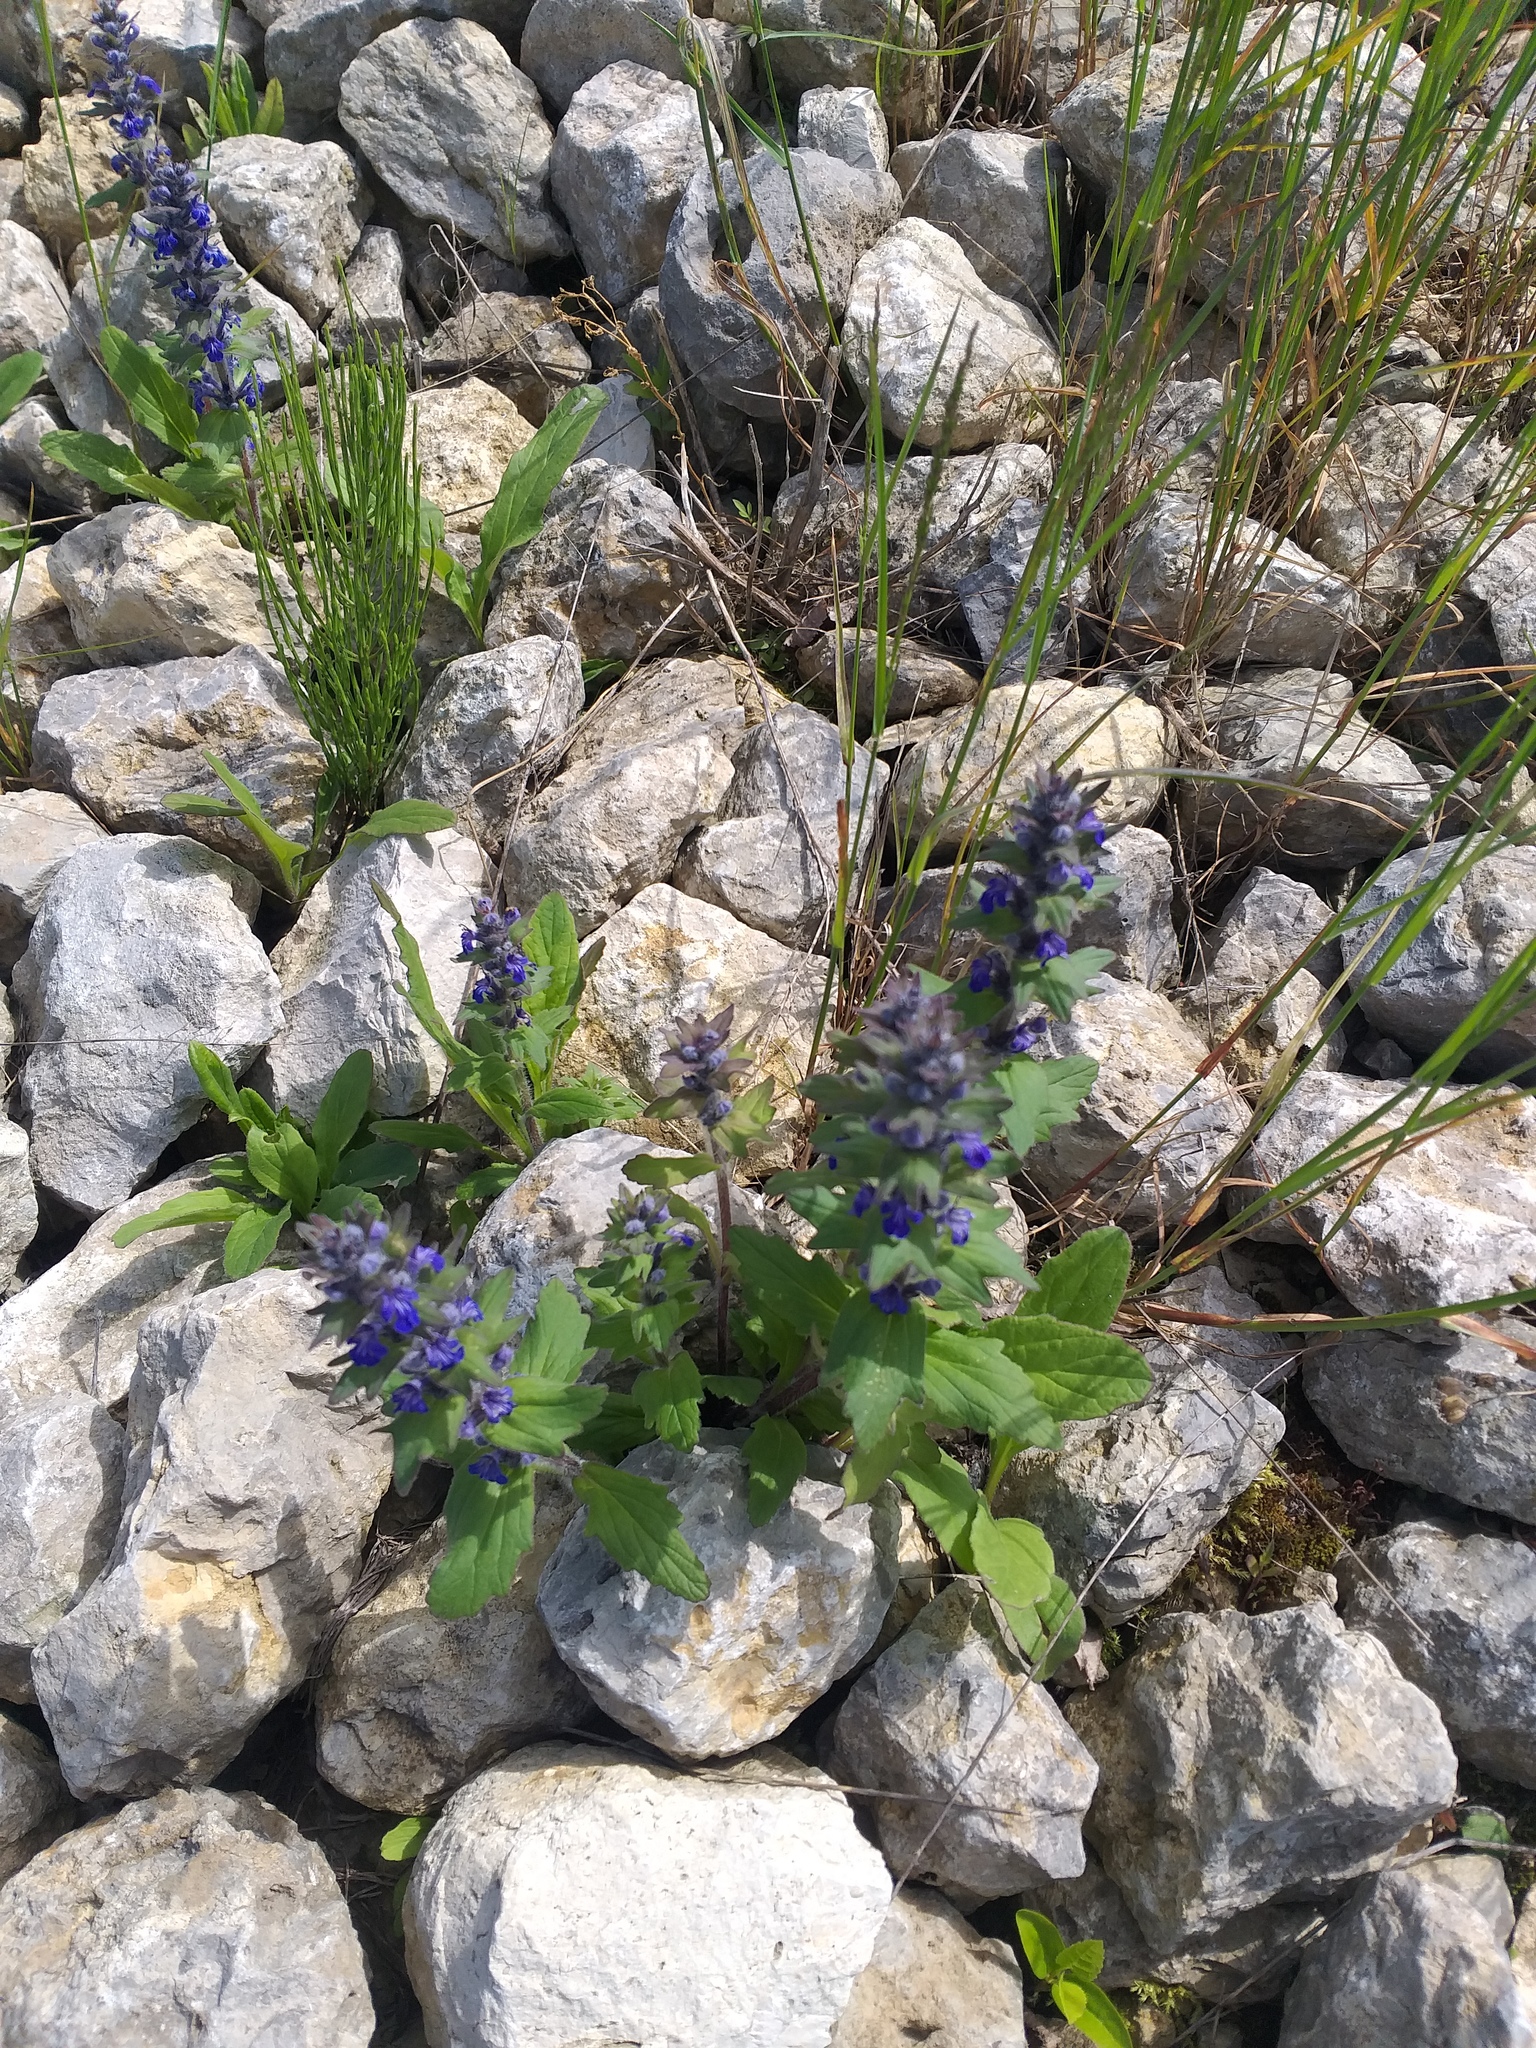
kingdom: Plantae
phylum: Tracheophyta
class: Magnoliopsida
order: Lamiales
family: Lamiaceae
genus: Ajuga
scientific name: Ajuga genevensis
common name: Blue bugle
